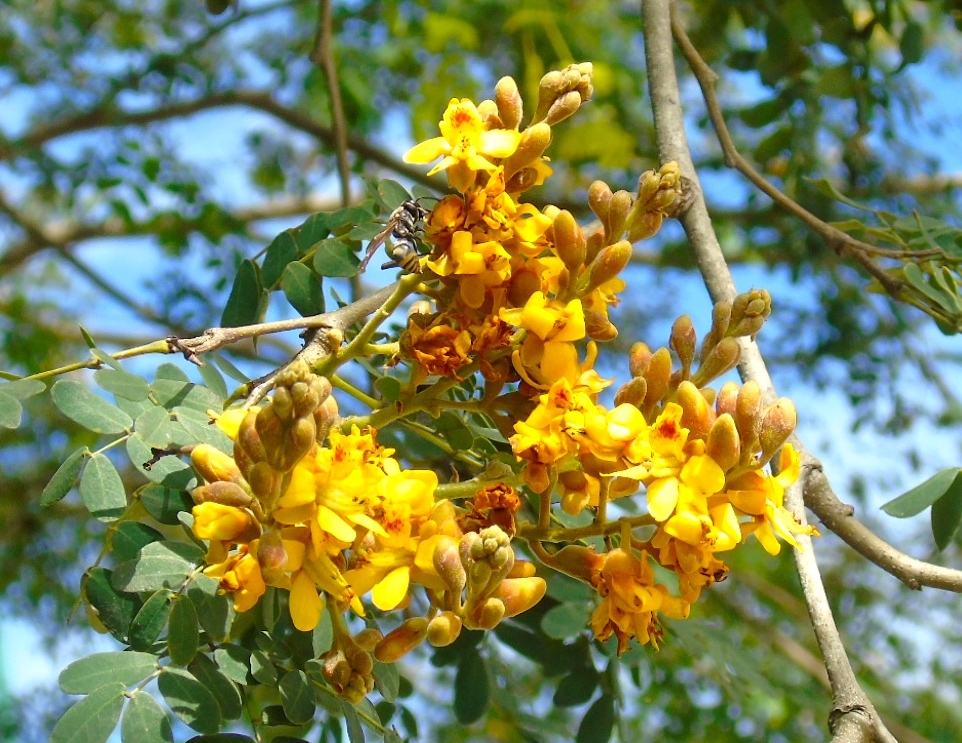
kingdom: Plantae
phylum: Tracheophyta
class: Magnoliopsida
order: Fabales
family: Fabaceae
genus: Libidibia
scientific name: Libidibia sclerocarpa
